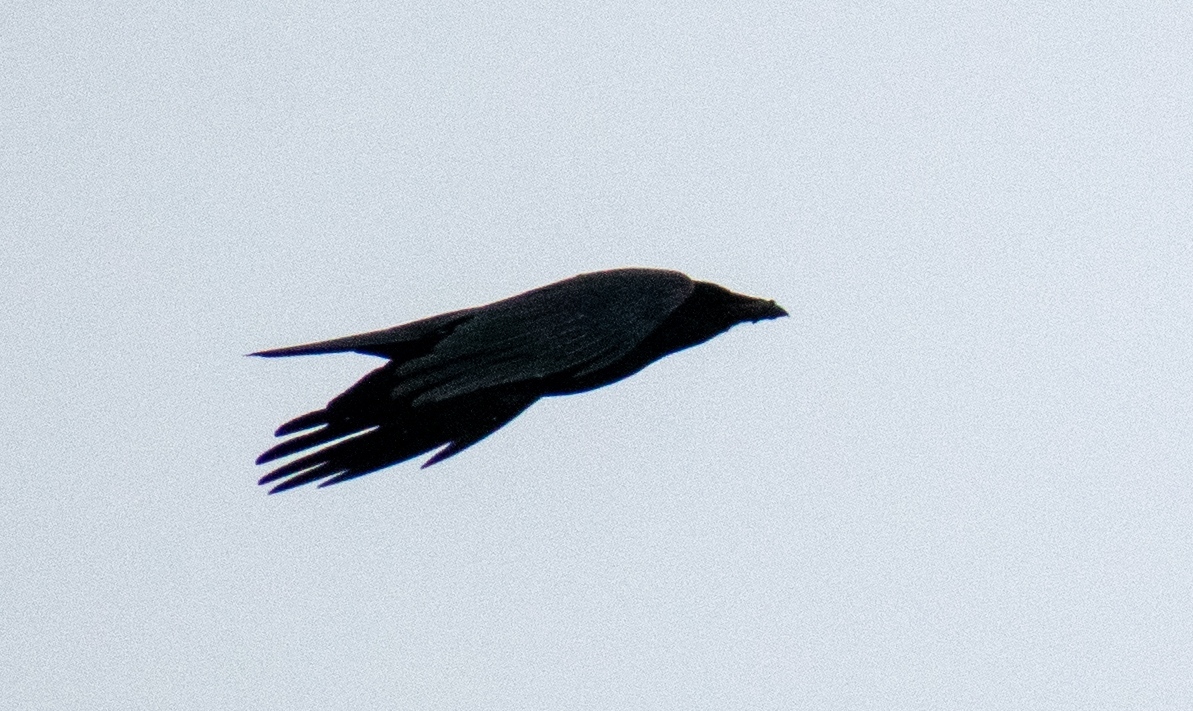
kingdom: Animalia
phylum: Chordata
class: Aves
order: Passeriformes
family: Corvidae
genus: Corvus
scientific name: Corvus corax
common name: Common raven
